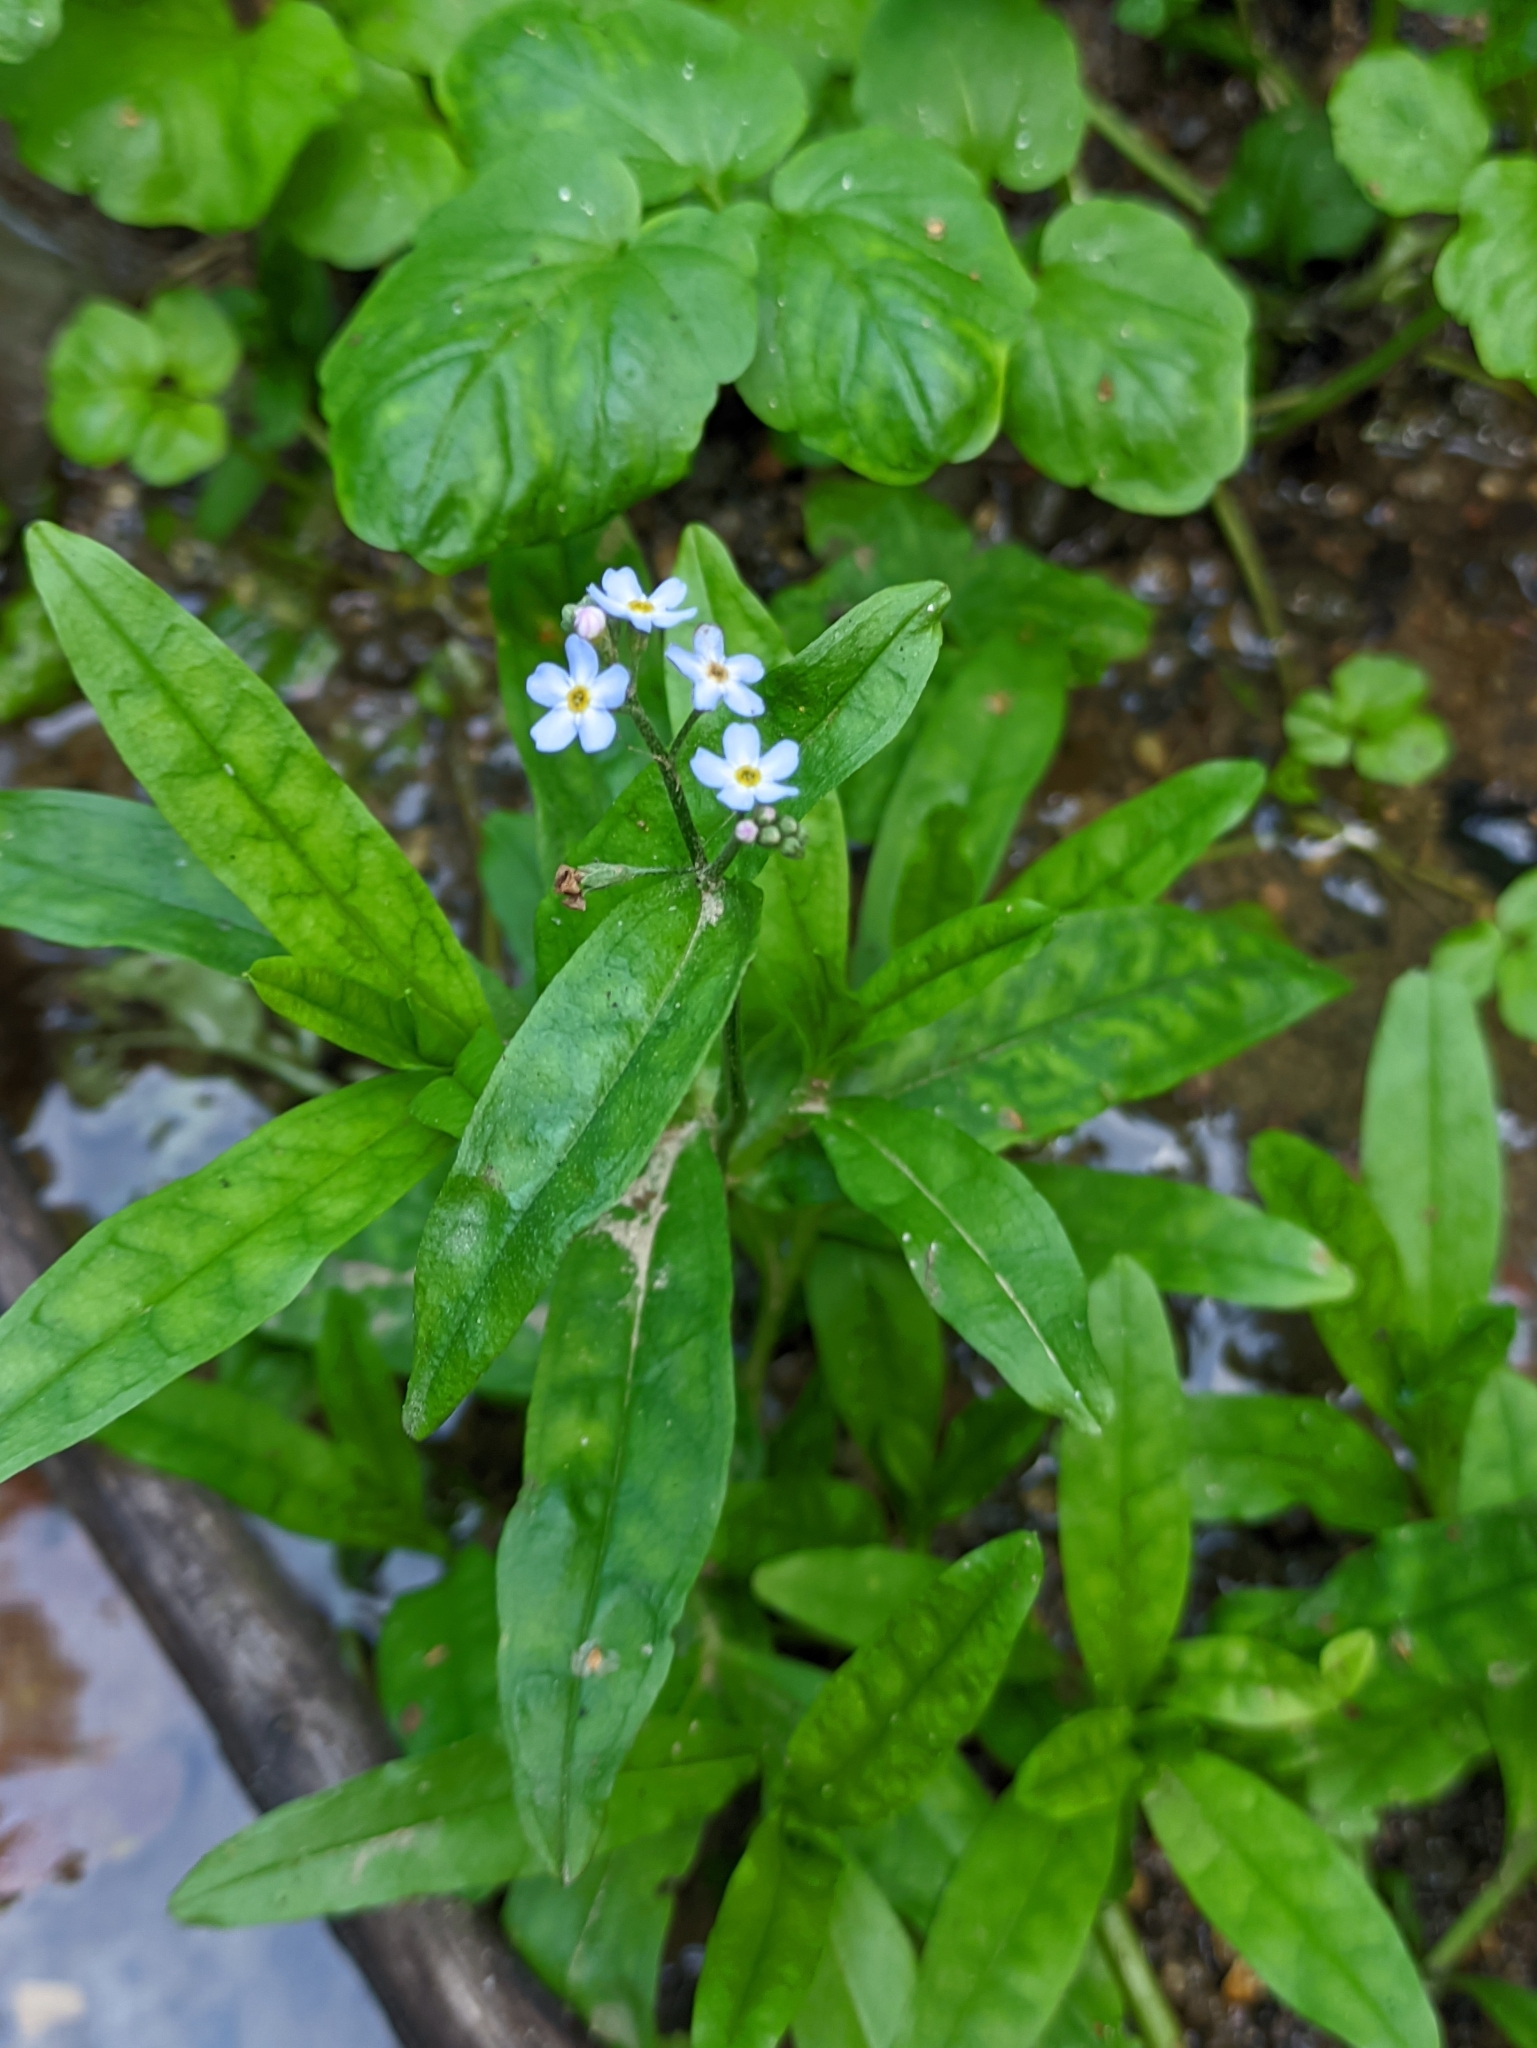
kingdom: Plantae
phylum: Tracheophyta
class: Magnoliopsida
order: Boraginales
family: Boraginaceae
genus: Myosotis
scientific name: Myosotis scorpioides
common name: Water forget-me-not
